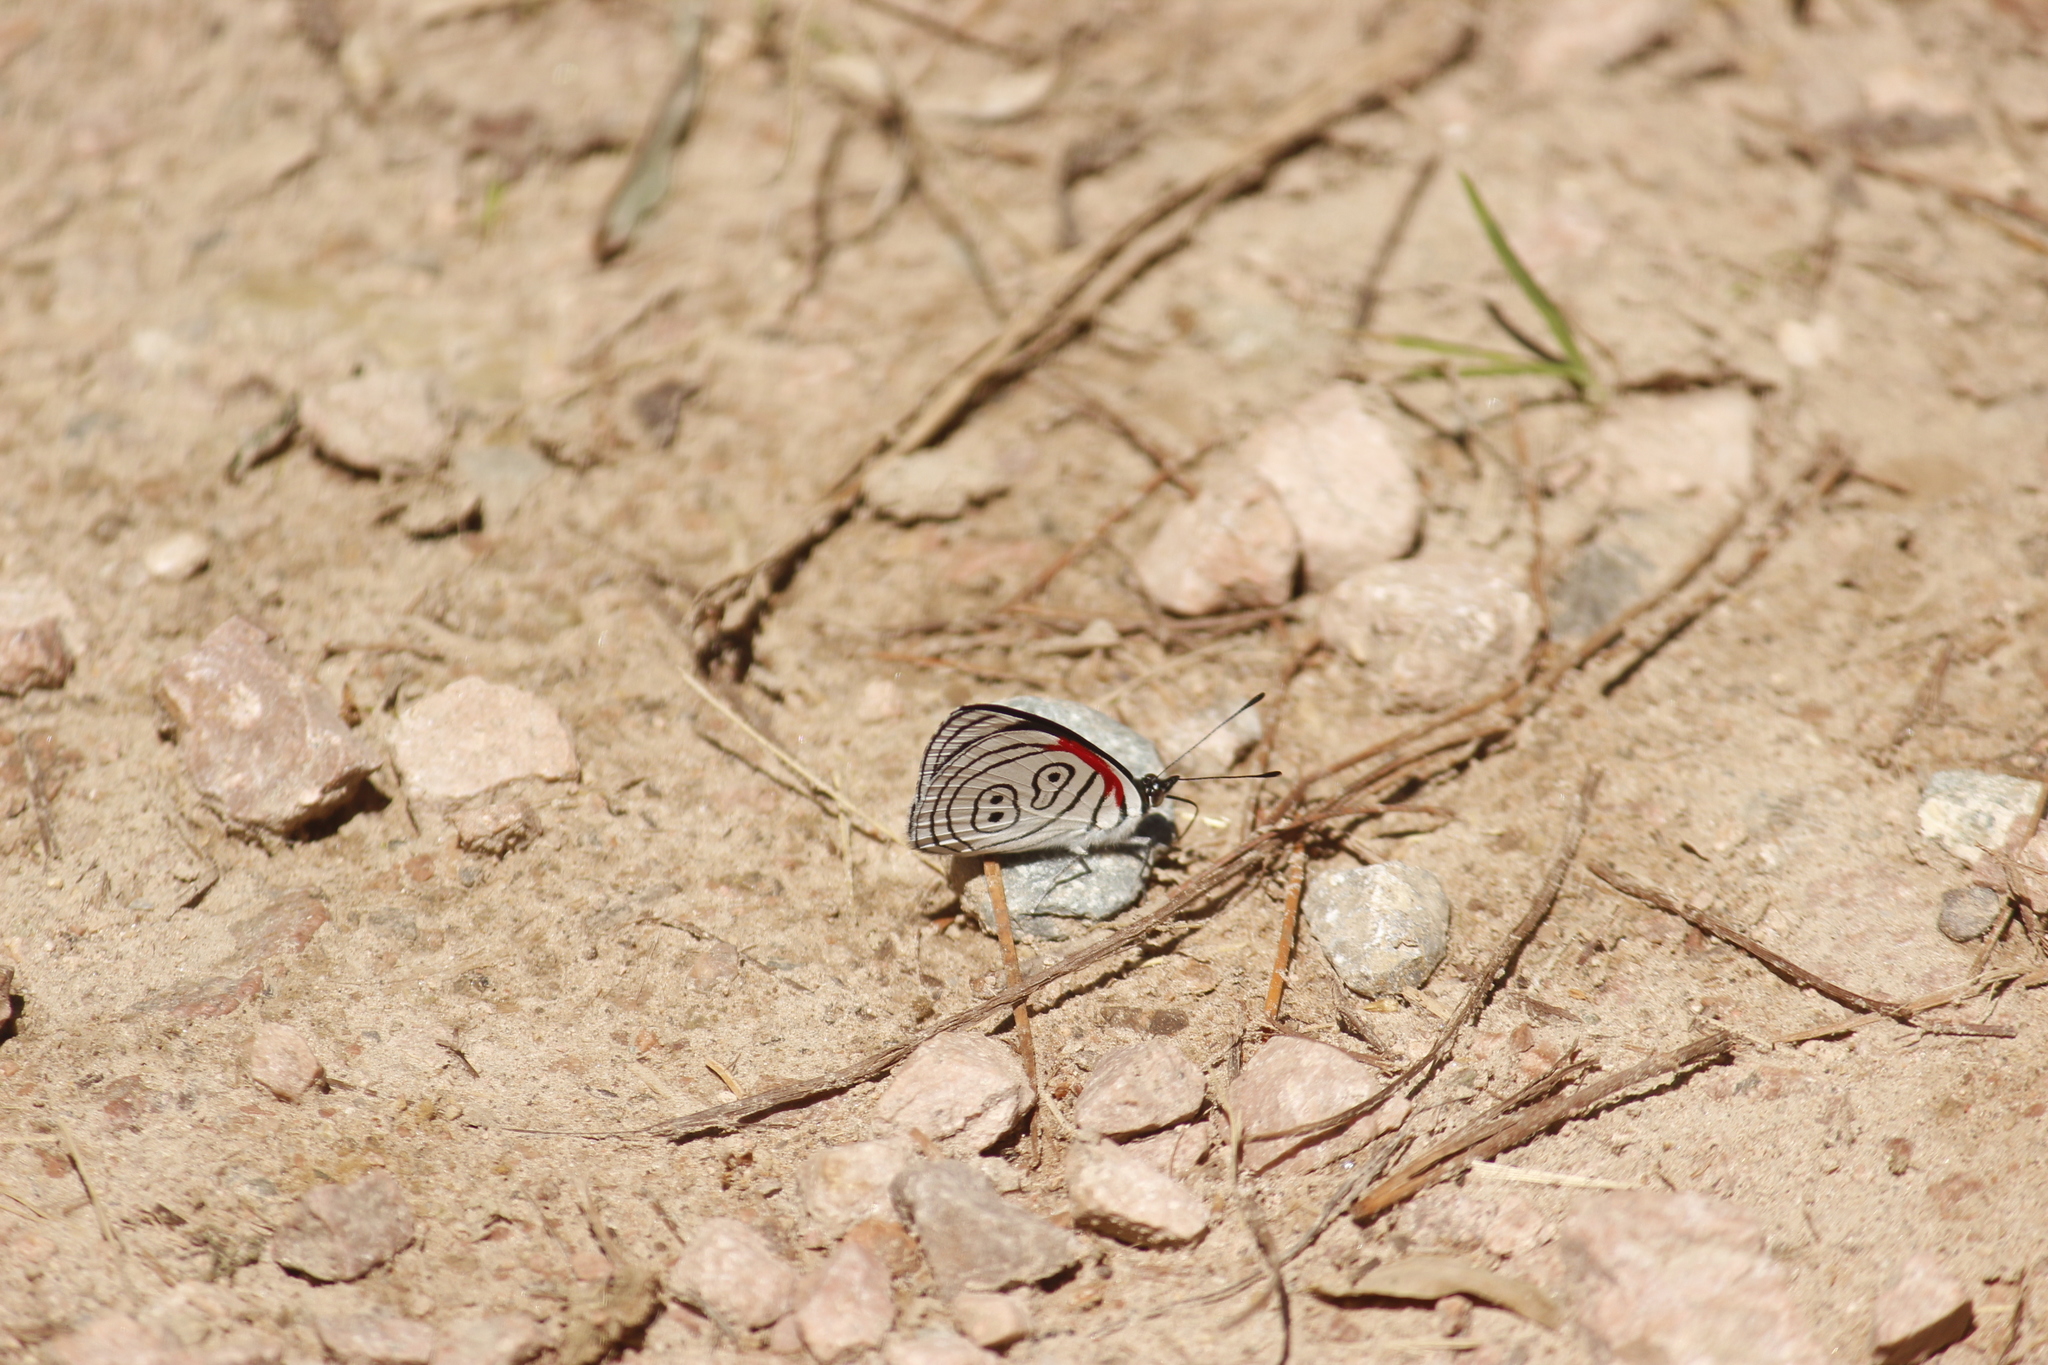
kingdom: Animalia
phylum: Arthropoda
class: Insecta
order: Lepidoptera
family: Nymphalidae
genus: Diaethria
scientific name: Diaethria clymena
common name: Widespread eighty-eight
